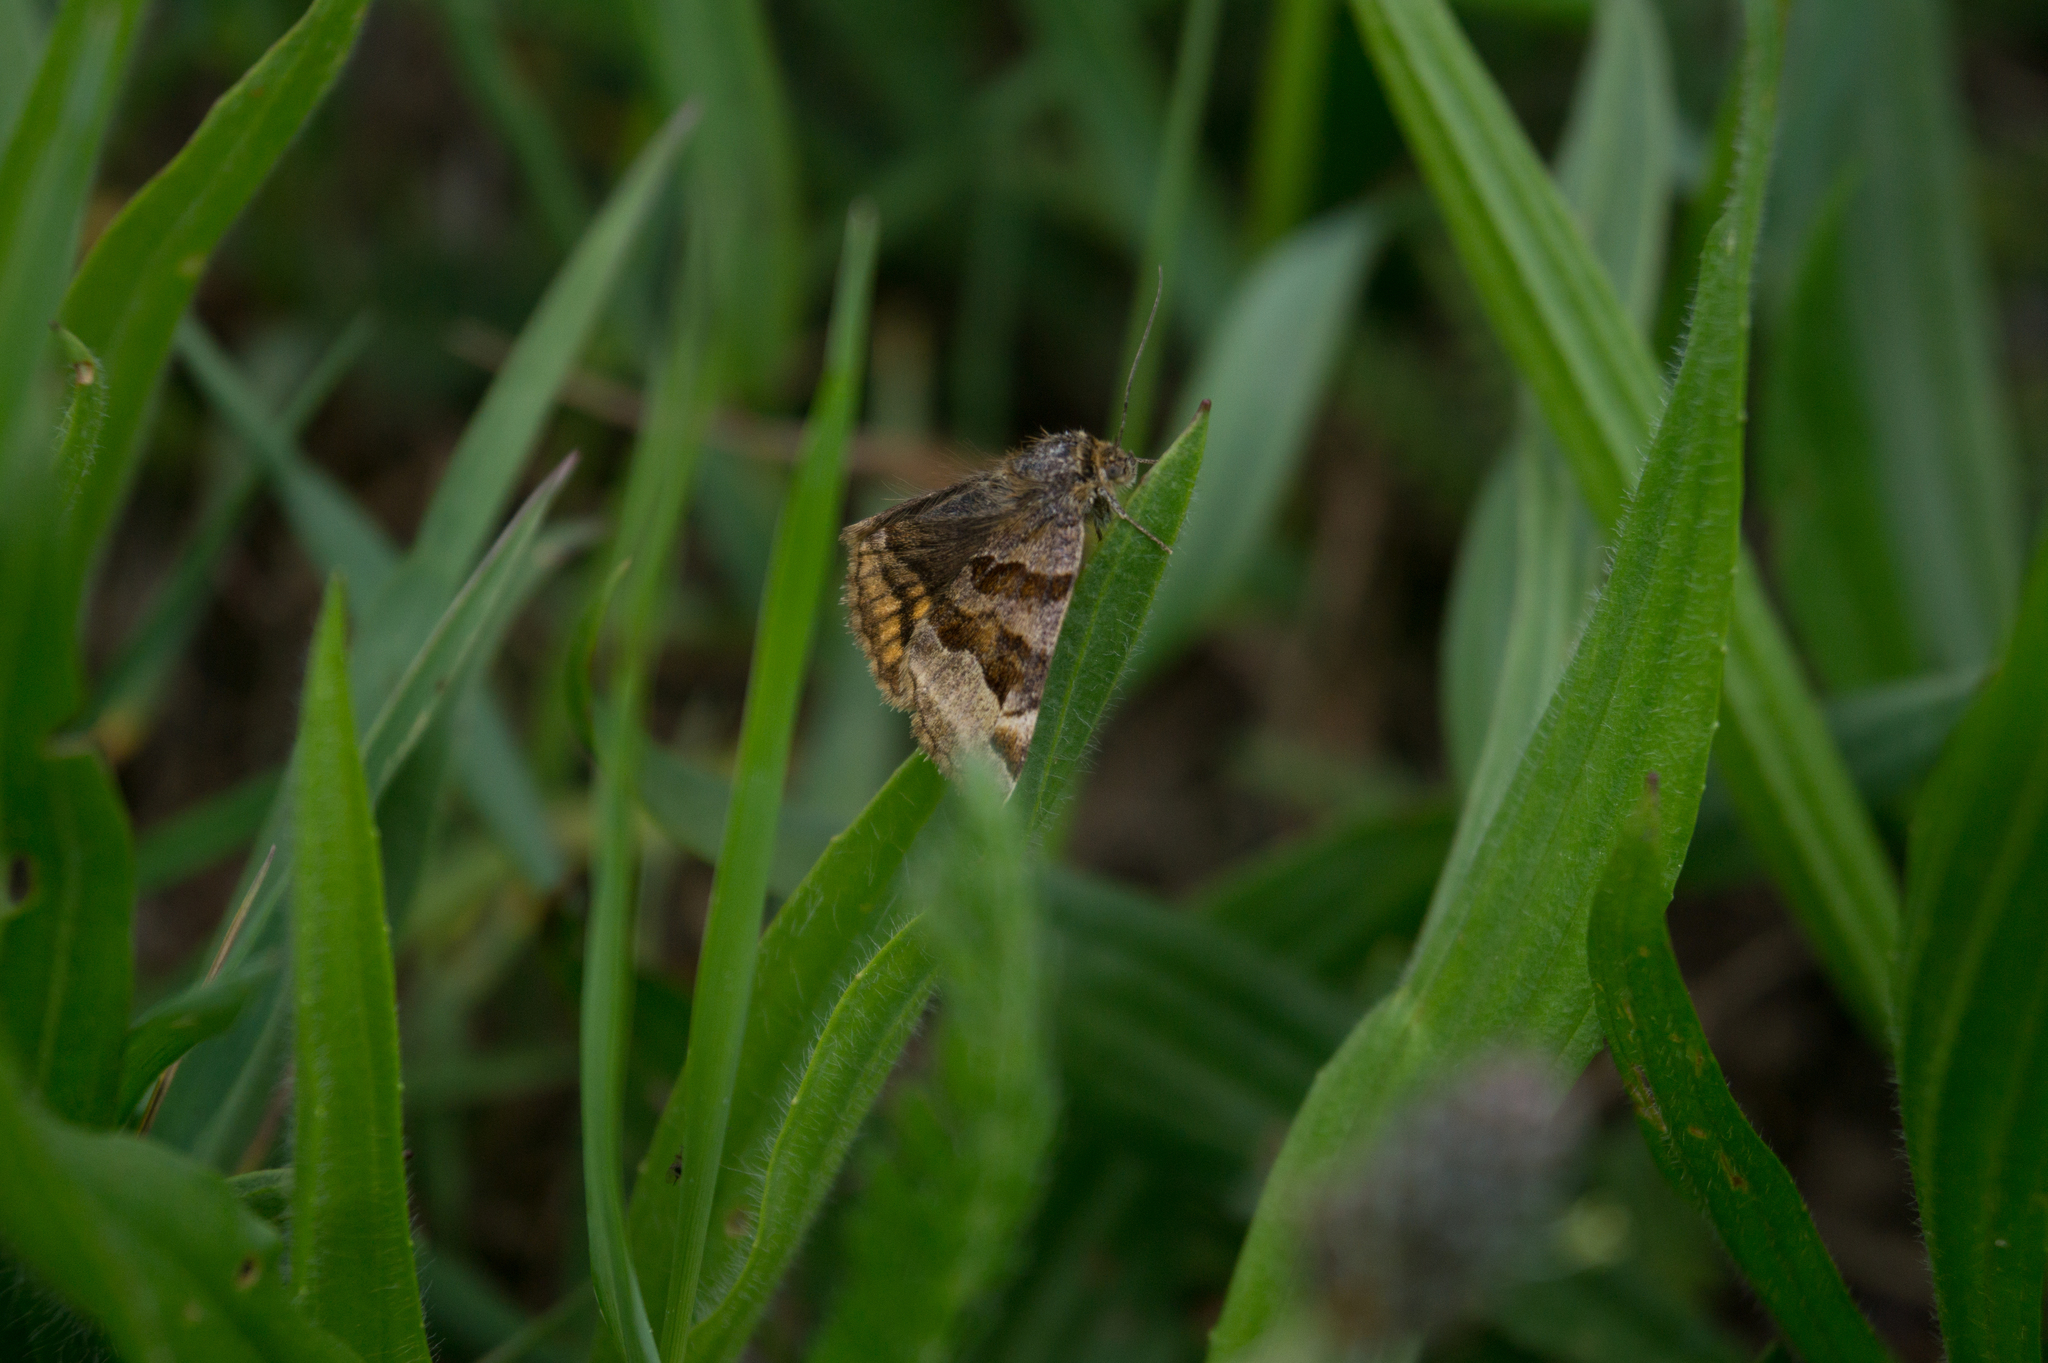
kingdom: Animalia
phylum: Arthropoda
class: Insecta
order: Lepidoptera
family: Erebidae
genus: Euclidia
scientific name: Euclidia glyphica
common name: Burnet companion
